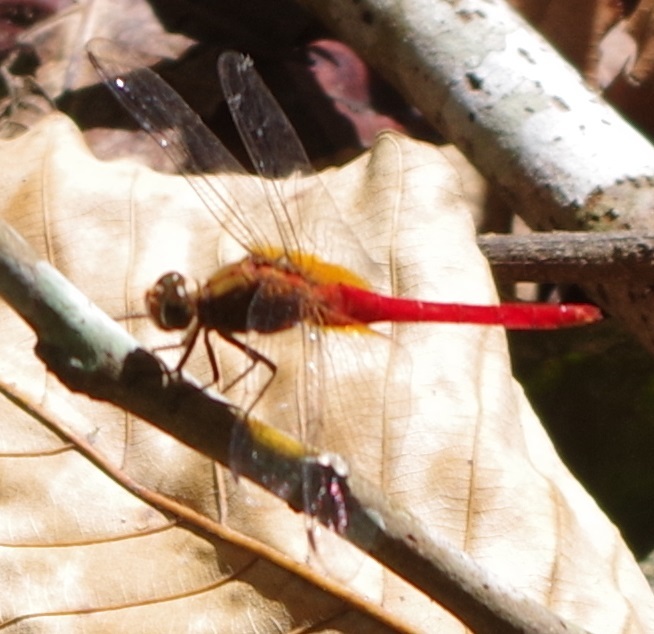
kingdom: Animalia
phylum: Arthropoda
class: Insecta
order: Odonata
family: Libellulidae
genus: Orthetrum
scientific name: Orthetrum testaceum
